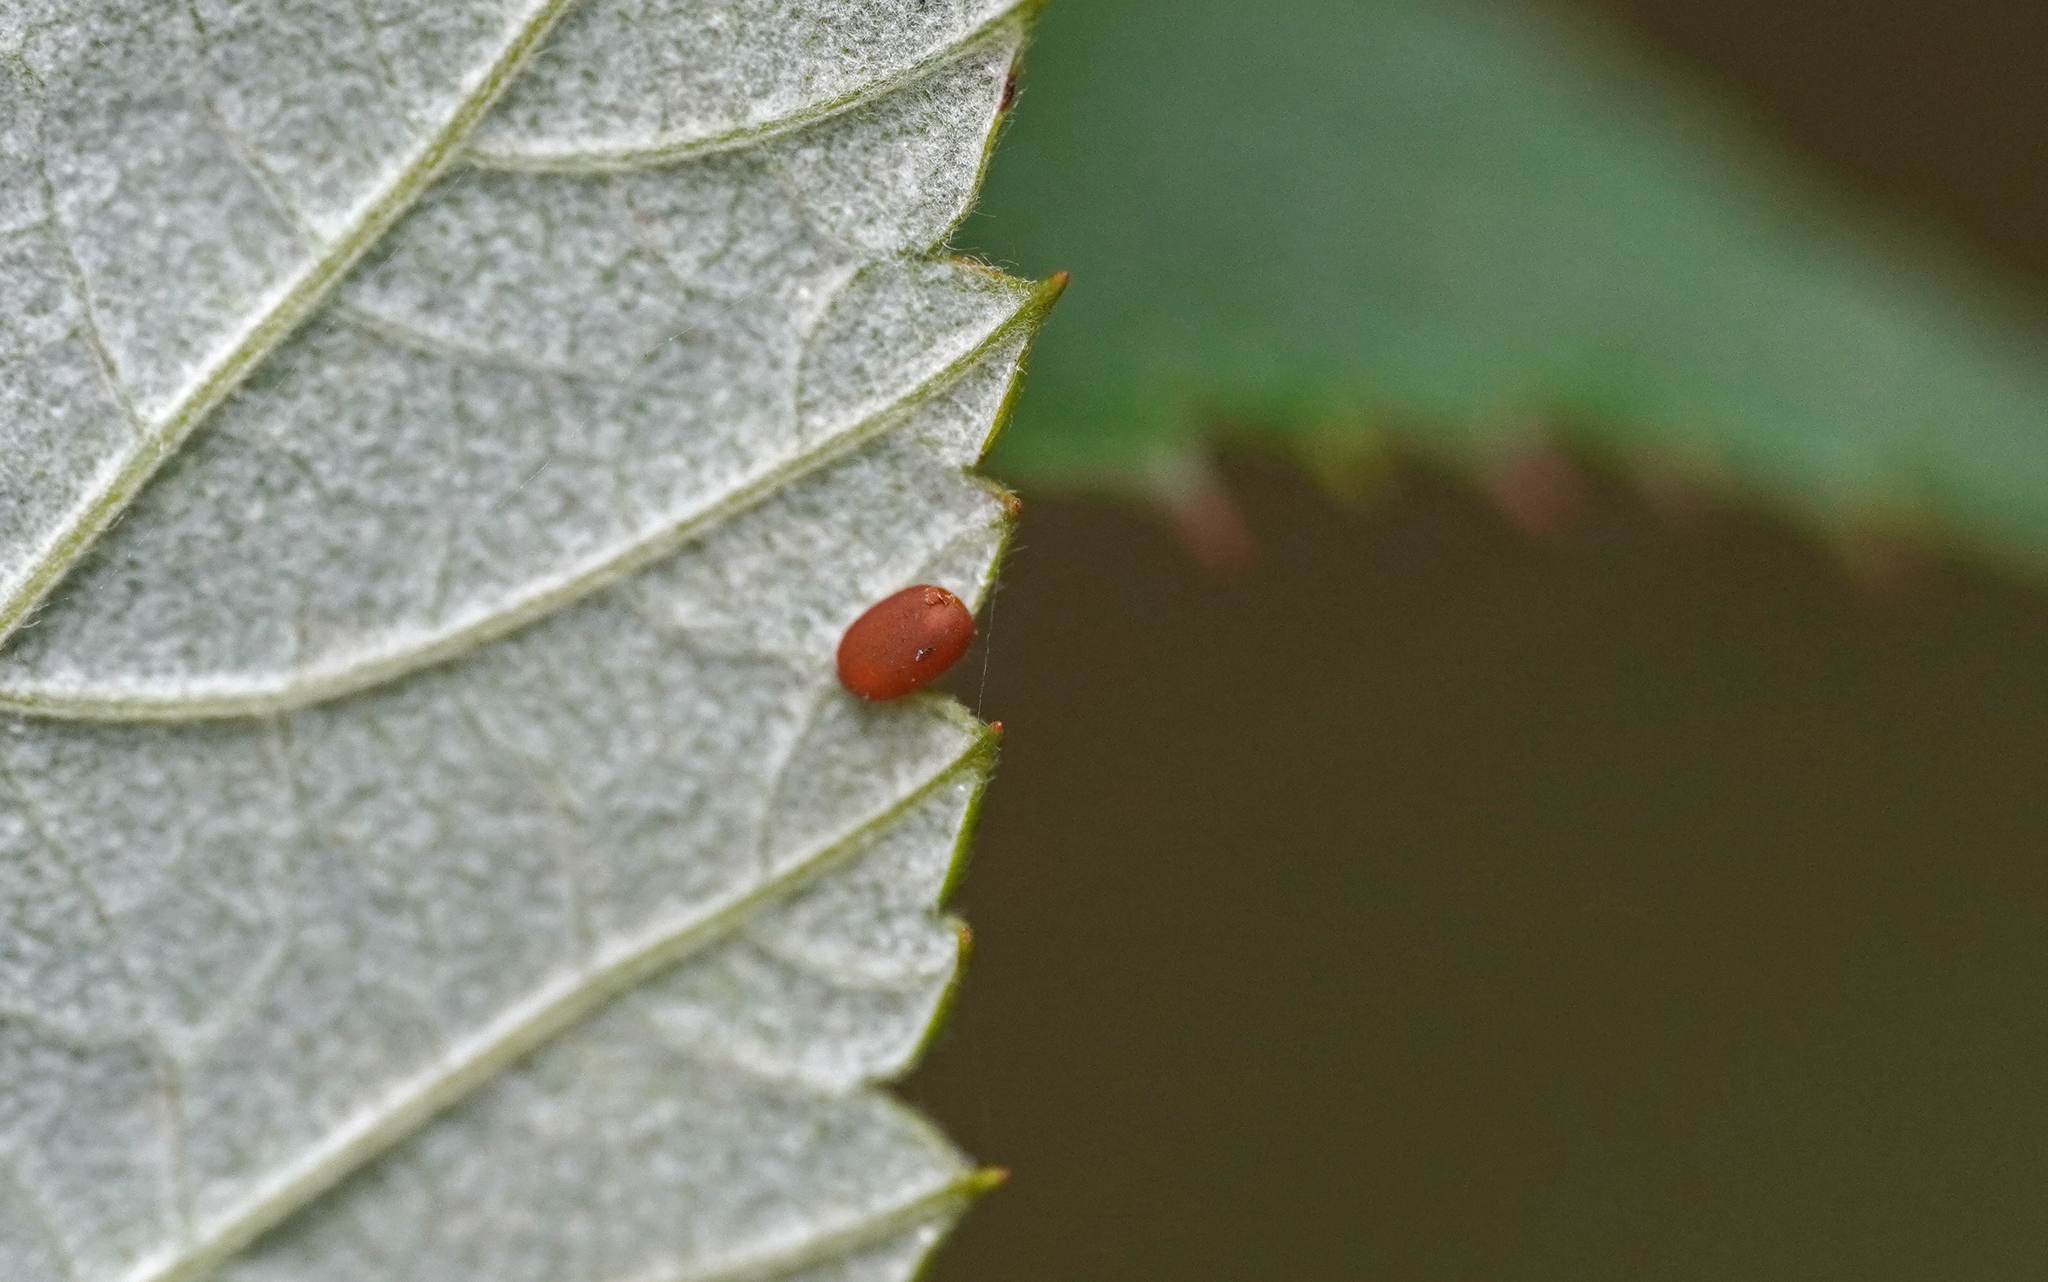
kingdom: Animalia
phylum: Arthropoda
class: Insecta
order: Lepidoptera
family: Sesiidae
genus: Pennisetia
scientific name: Pennisetia hylaeiformis
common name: Raspberry clearwing
